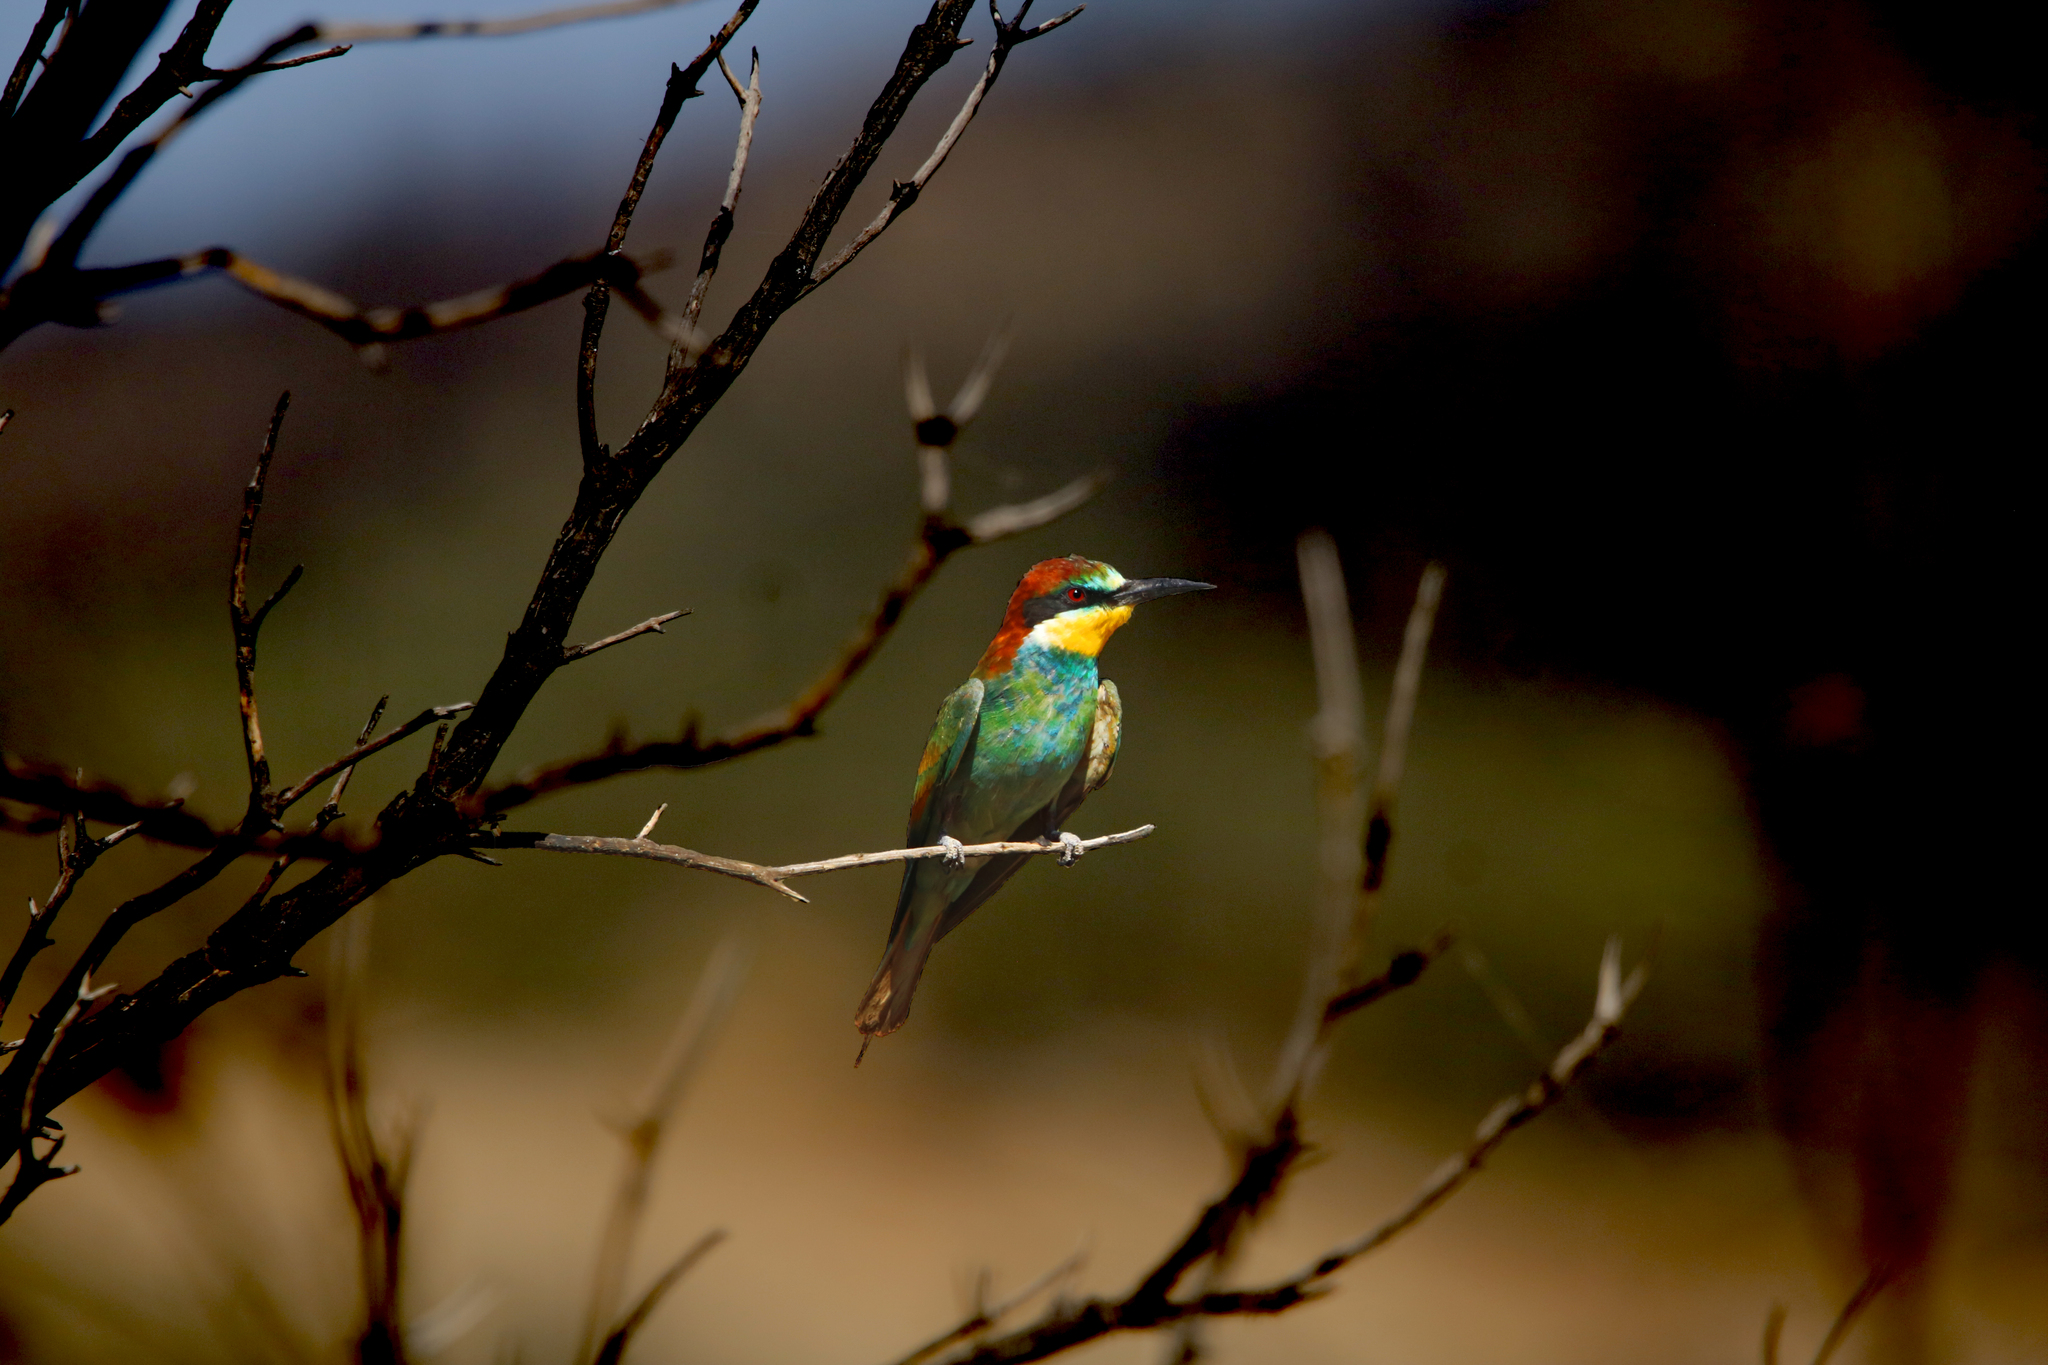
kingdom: Animalia
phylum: Chordata
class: Aves
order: Coraciiformes
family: Meropidae
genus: Merops
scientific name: Merops apiaster
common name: European bee-eater
